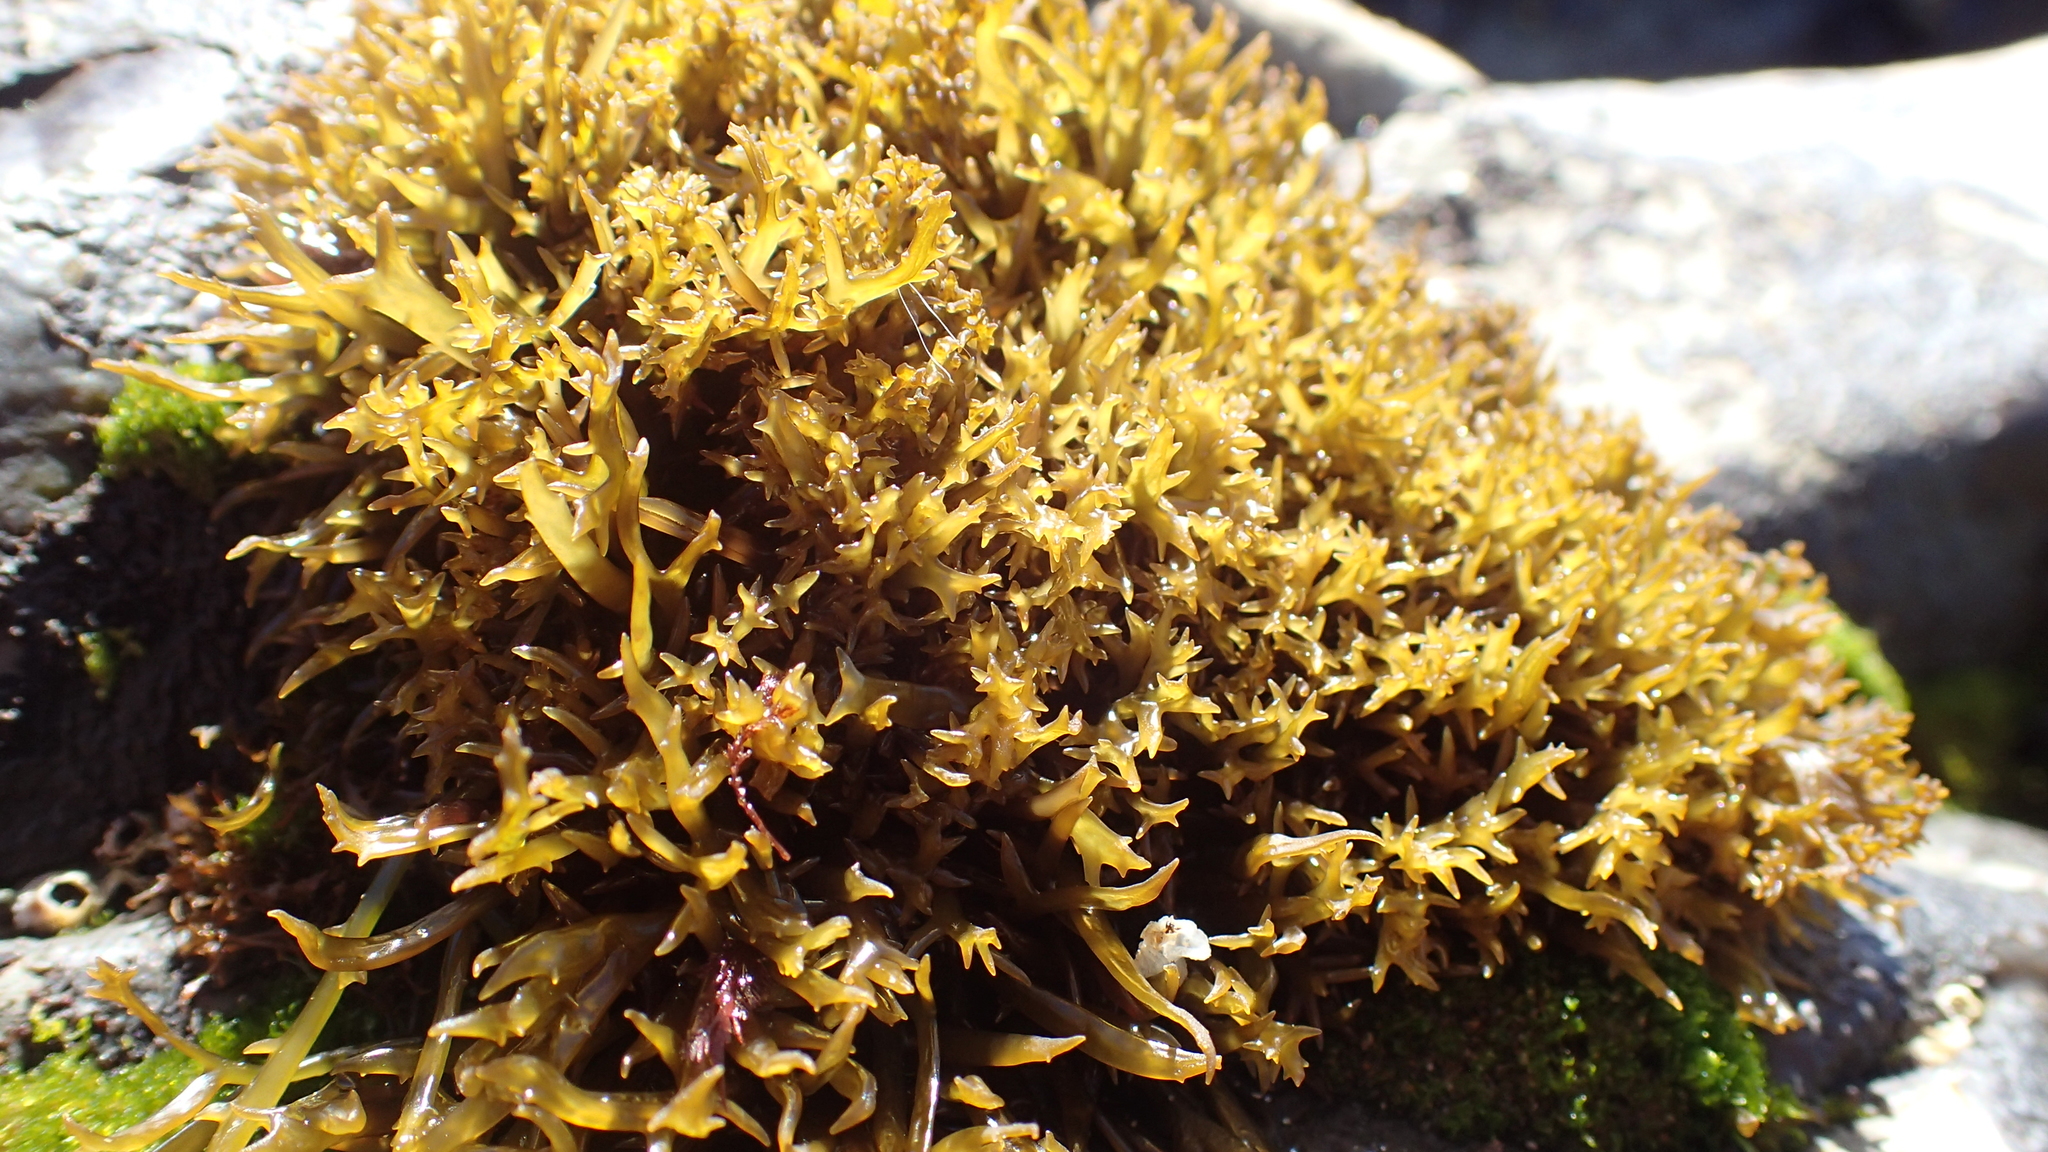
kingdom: Plantae
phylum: Rhodophyta
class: Florideophyceae
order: Gigartinales
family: Gigartinaceae
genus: Chondracanthus
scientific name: Chondracanthus canaliculatus
